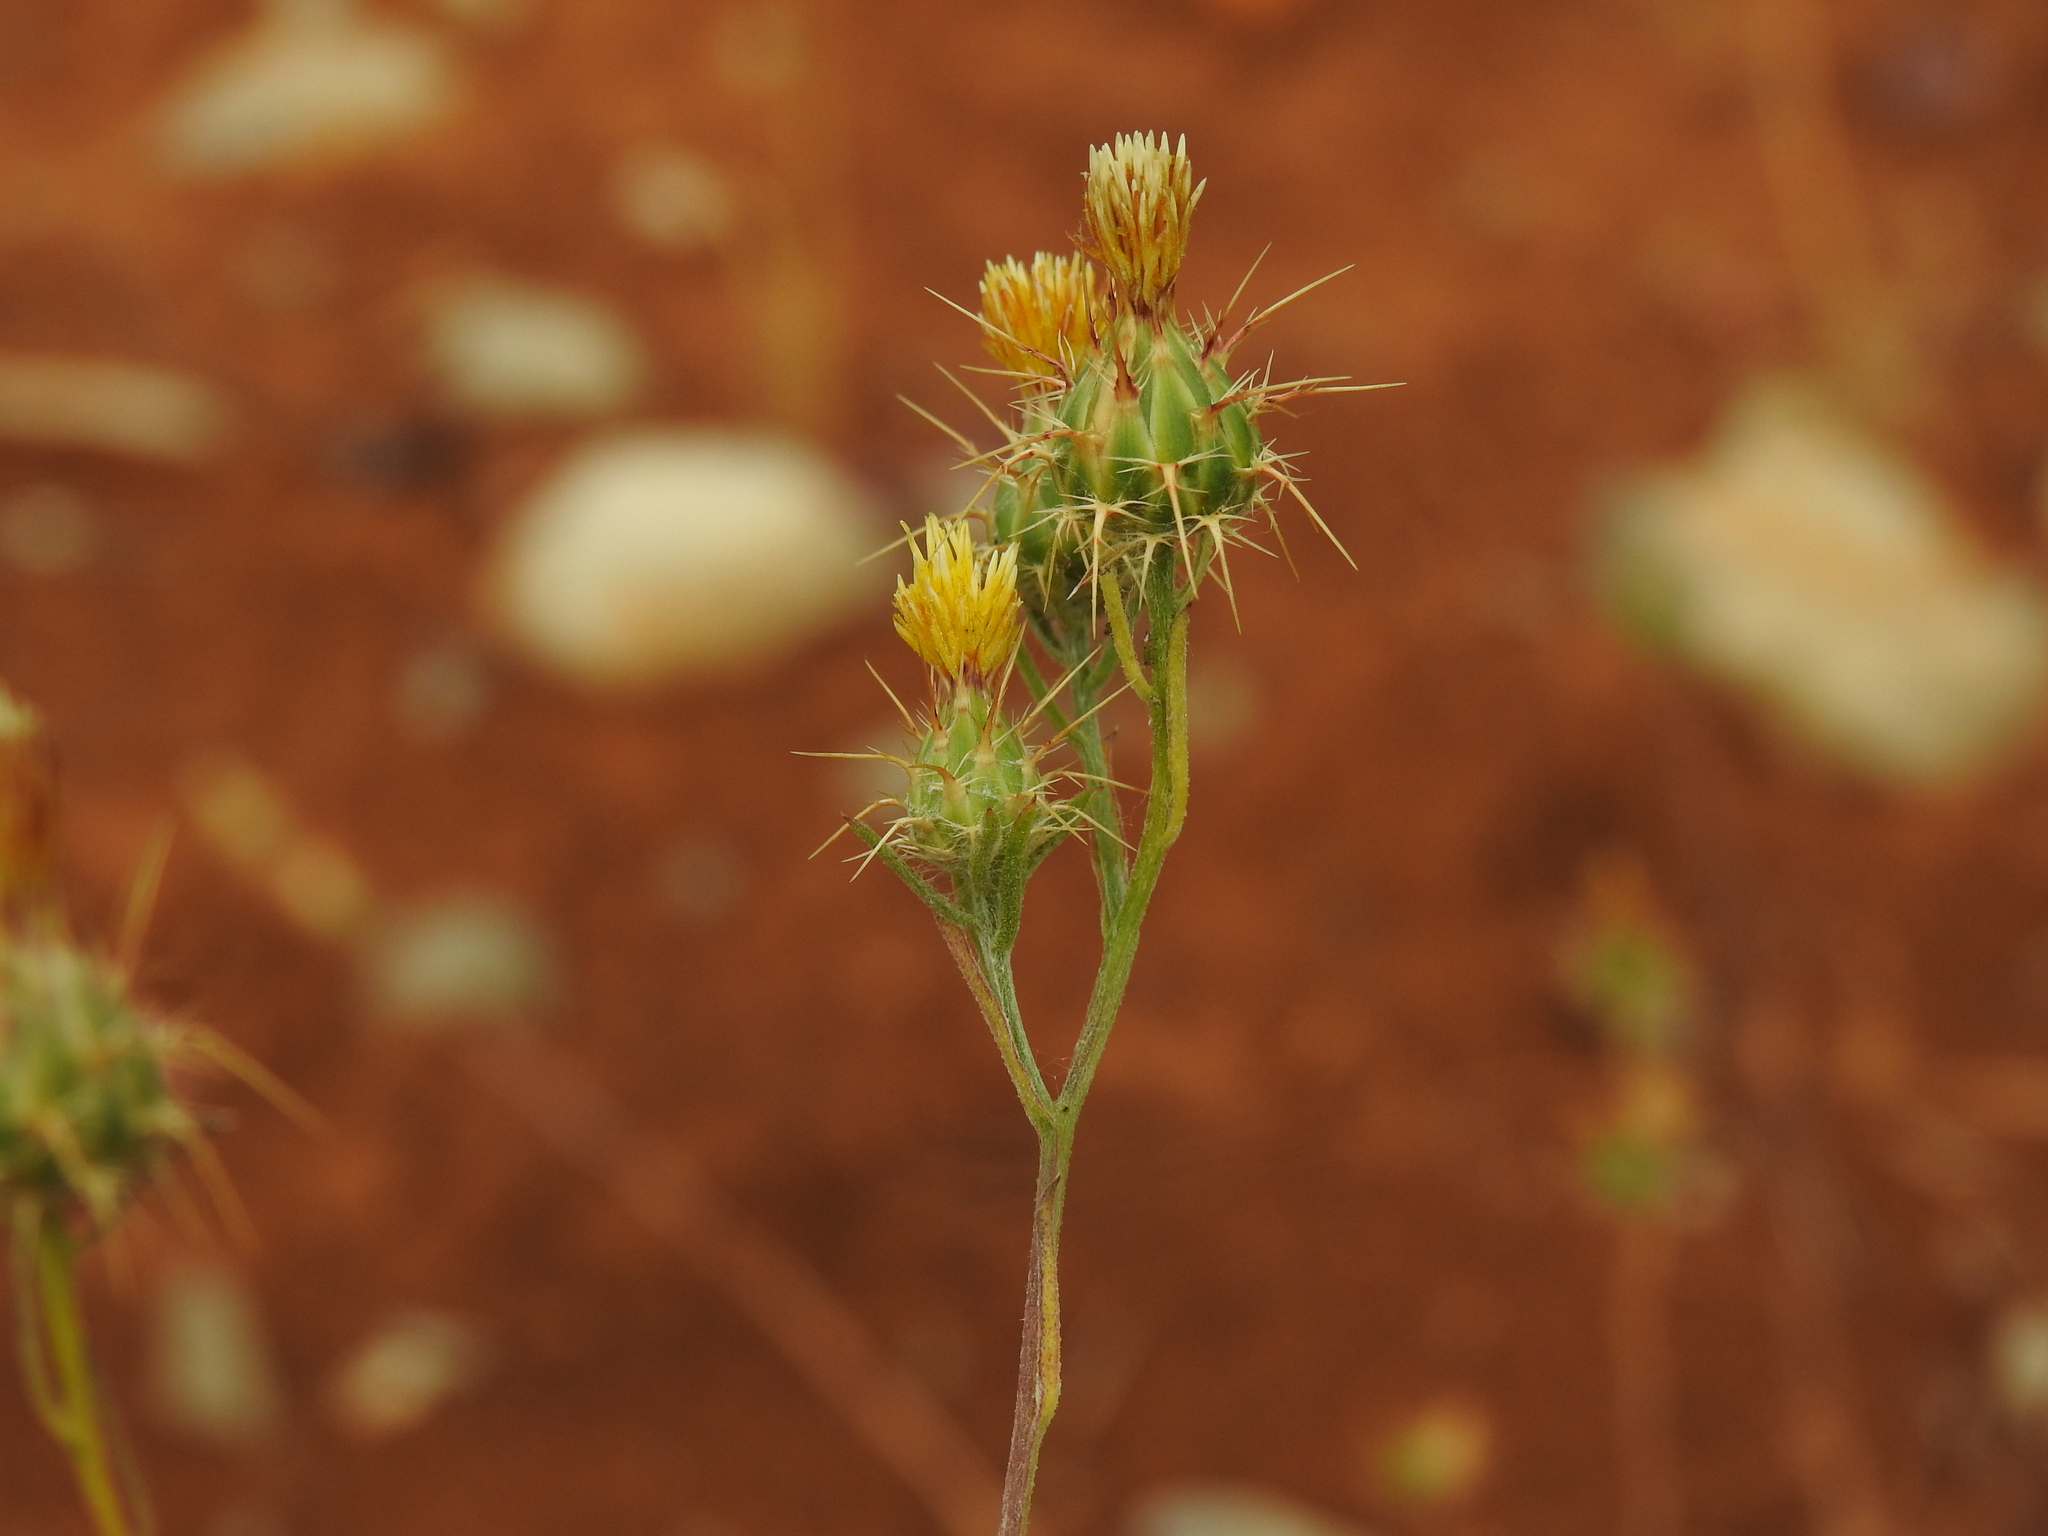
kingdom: Plantae
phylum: Tracheophyta
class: Magnoliopsida
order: Asterales
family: Asteraceae
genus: Centaurea
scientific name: Centaurea melitensis
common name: Maltese star-thistle
